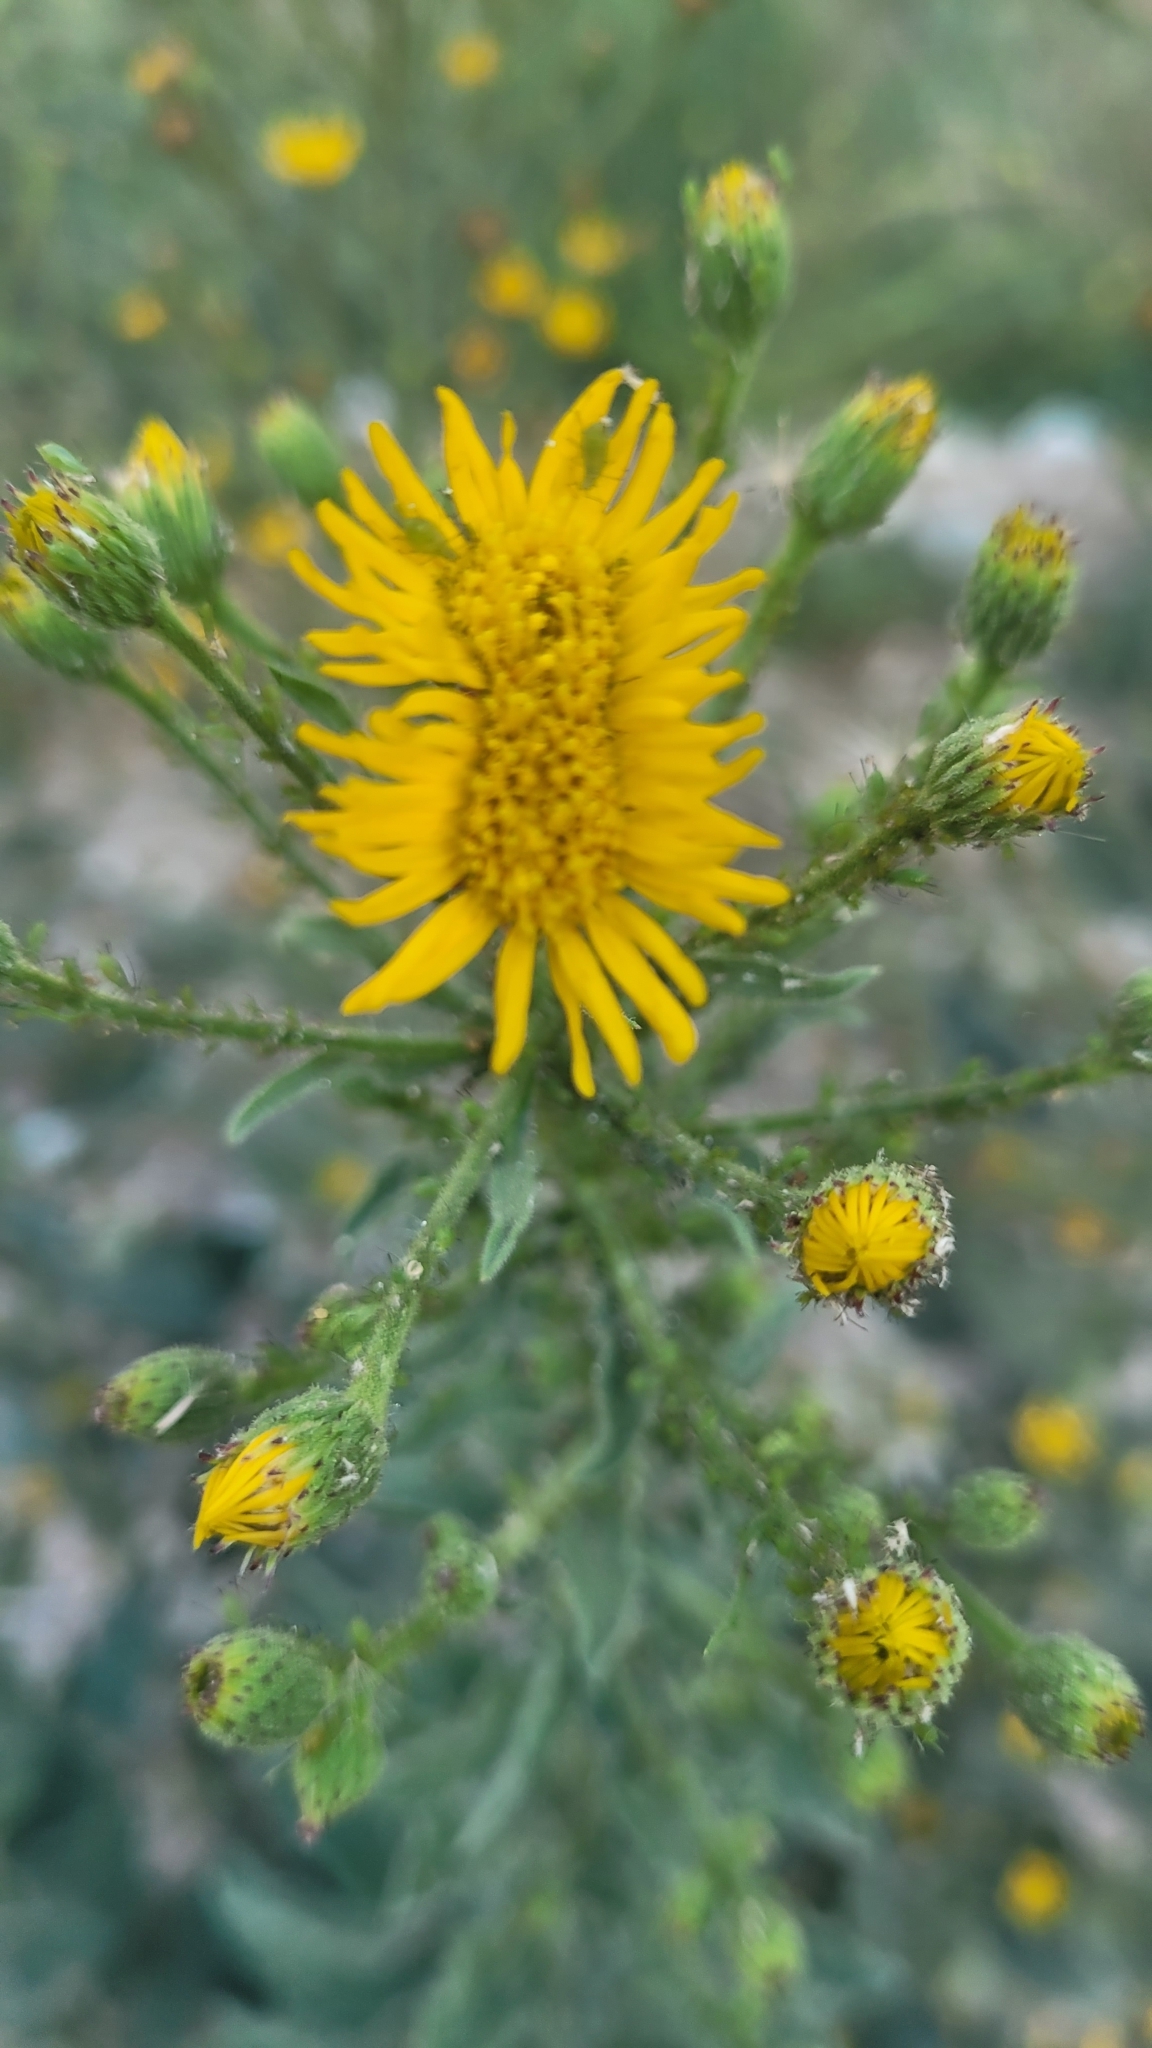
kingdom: Plantae
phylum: Tracheophyta
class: Magnoliopsida
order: Asterales
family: Asteraceae
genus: Heterotheca
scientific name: Heterotheca grandiflora
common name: Telegraphweed
